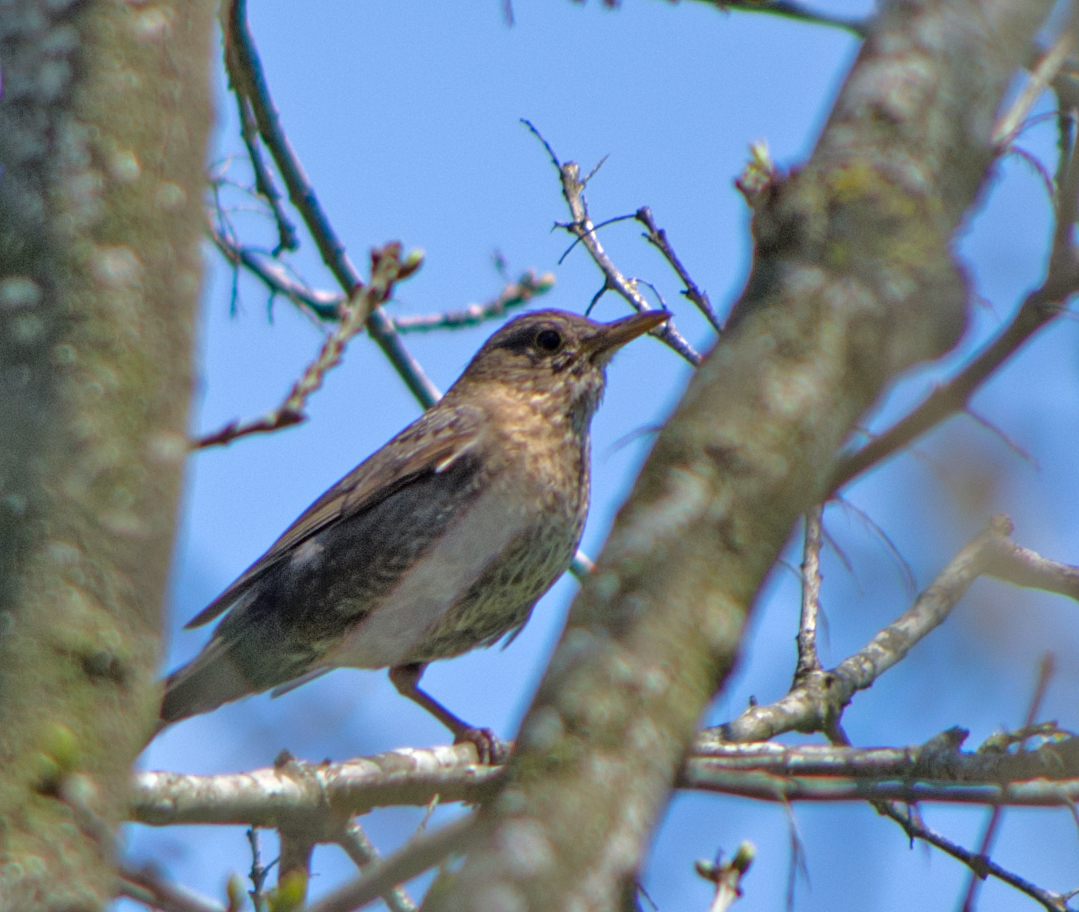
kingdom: Animalia
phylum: Chordata
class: Aves
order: Passeriformes
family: Muscicapidae
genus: Monticola
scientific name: Monticola solitarius
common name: Blue rock thrush
